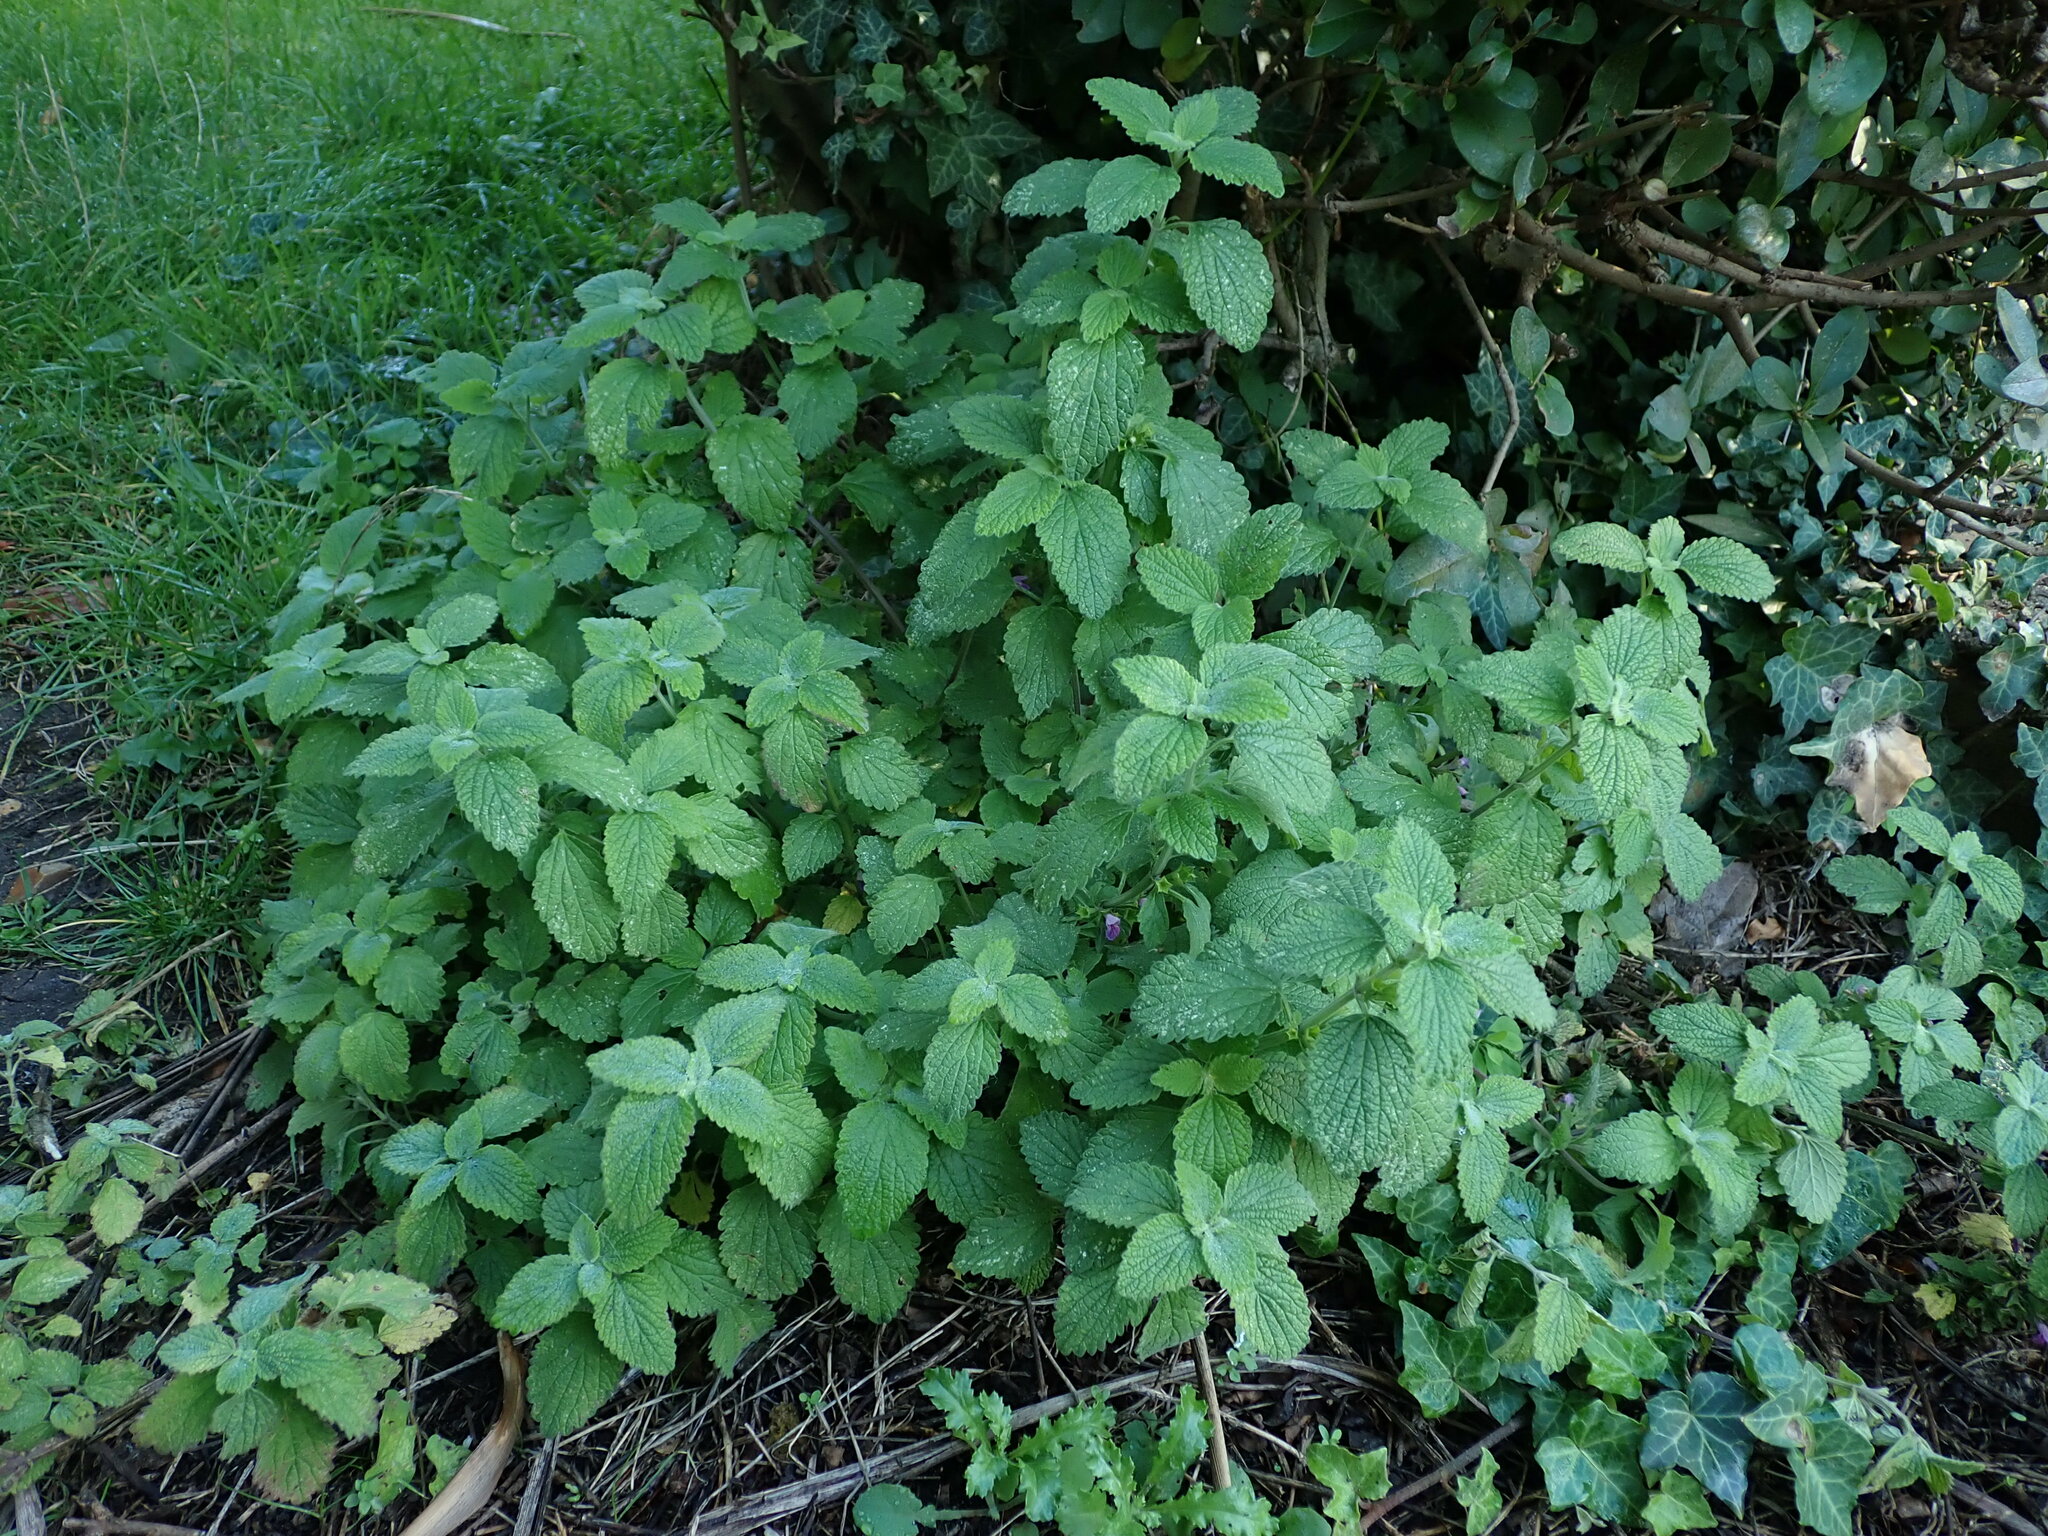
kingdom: Plantae
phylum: Tracheophyta
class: Magnoliopsida
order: Lamiales
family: Lamiaceae
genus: Ballota
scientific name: Ballota nigra
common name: Black horehound
